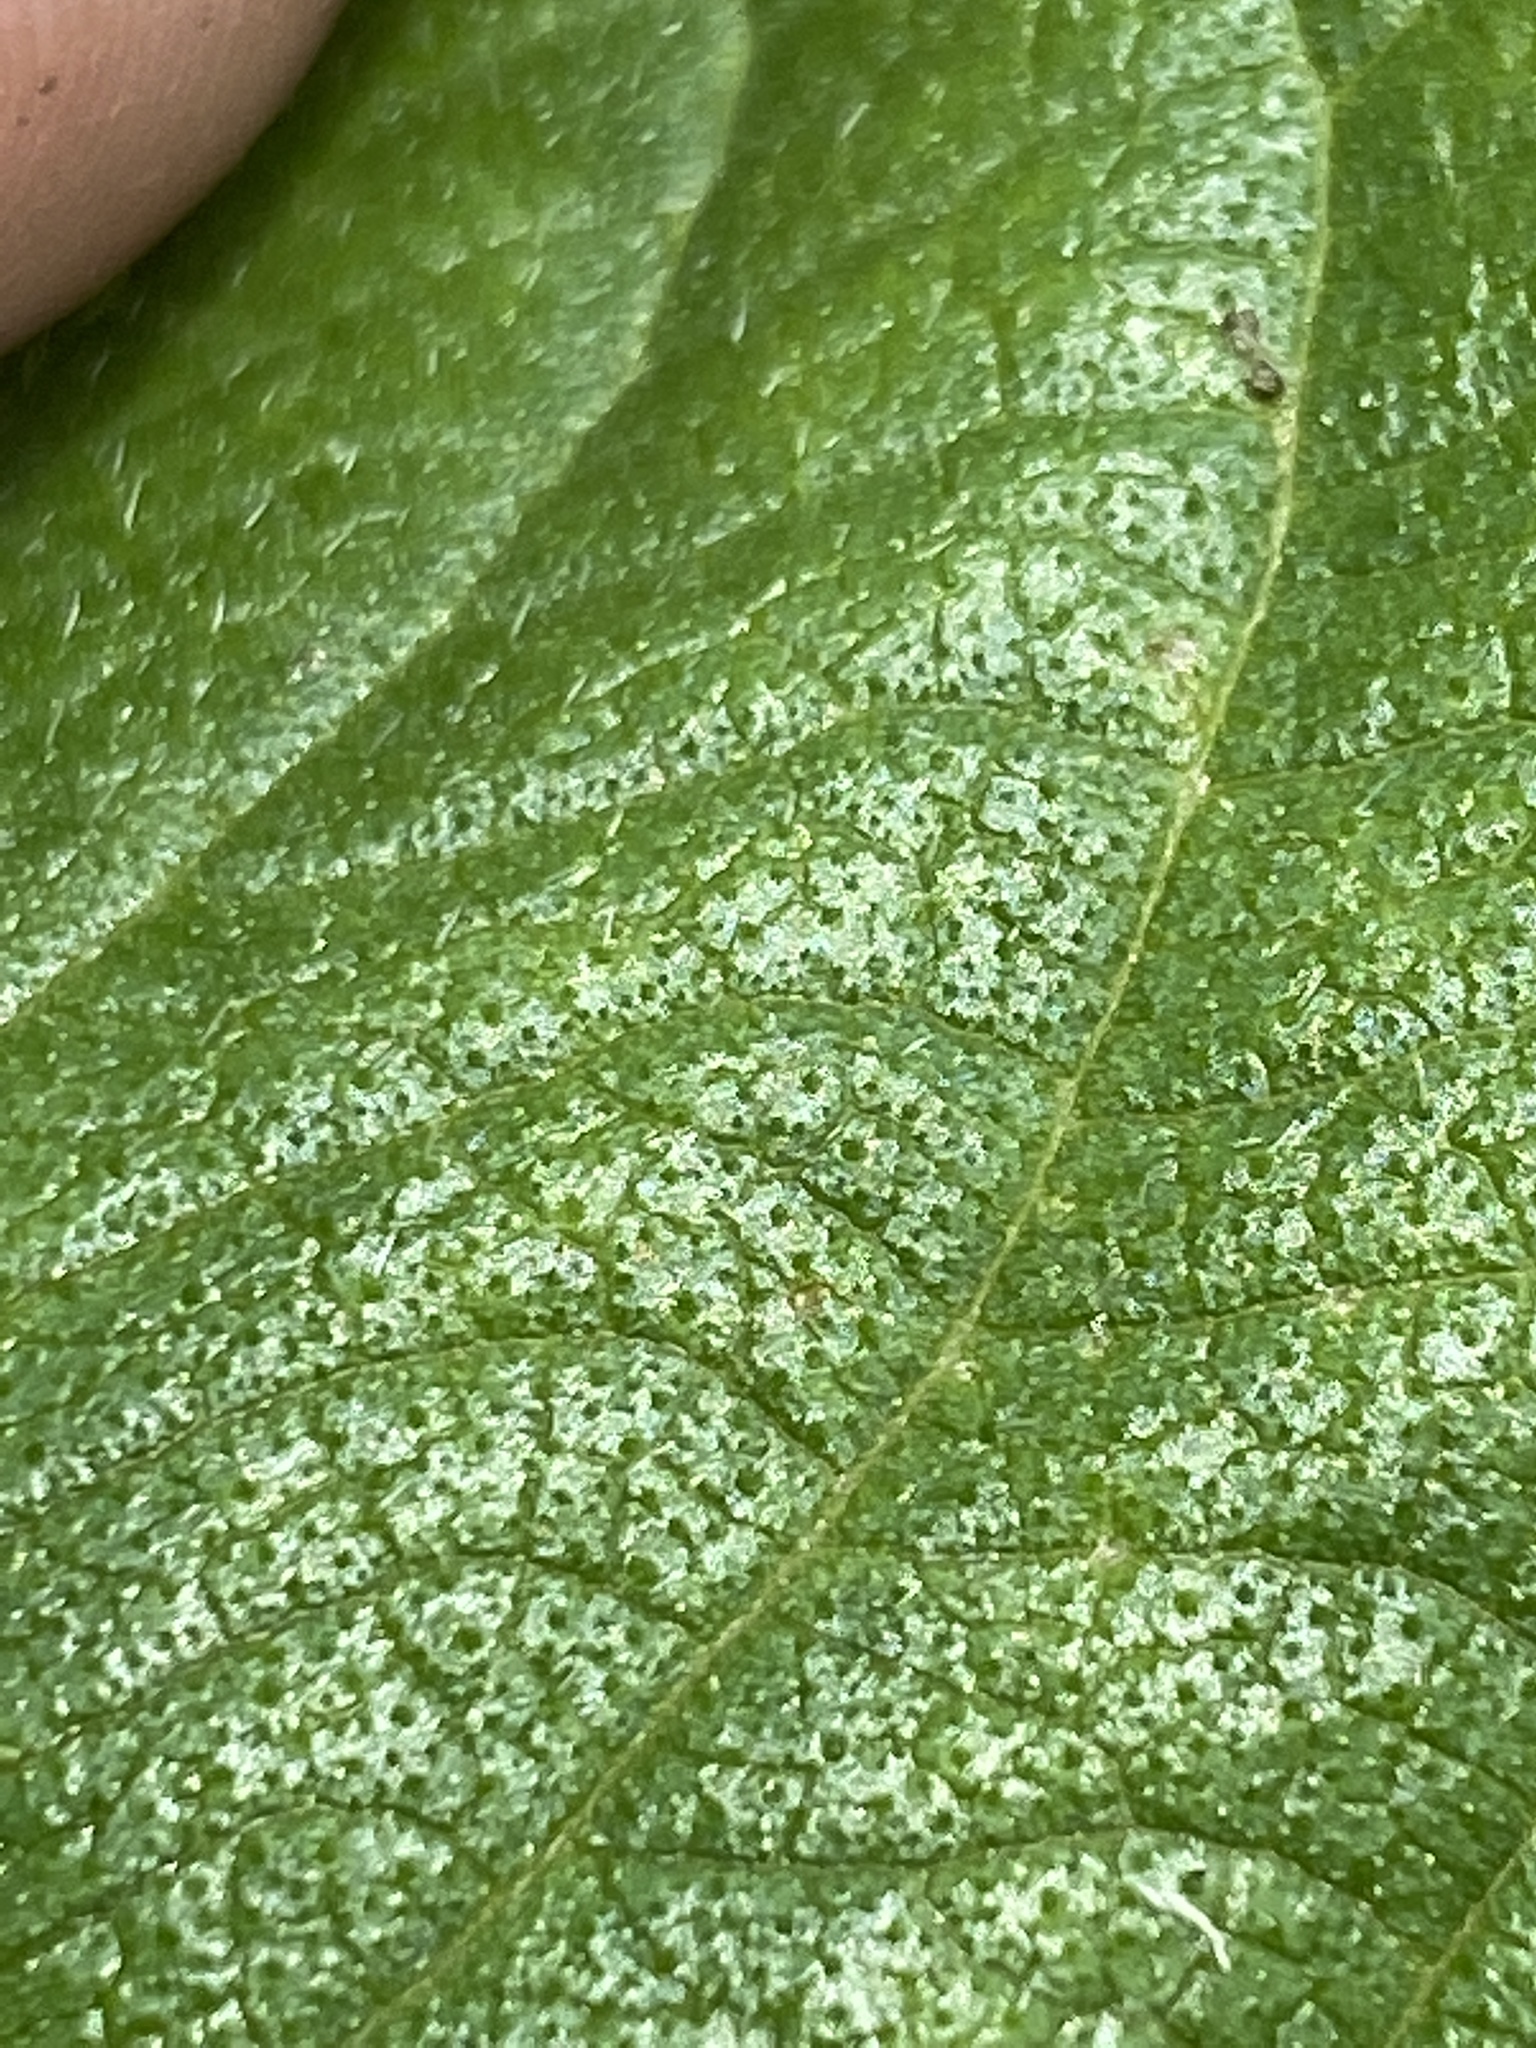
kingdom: Plantae
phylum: Tracheophyta
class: Magnoliopsida
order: Lamiales
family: Verbenaceae
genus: Lantana
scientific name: Lantana strigocamara
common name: Lantana
